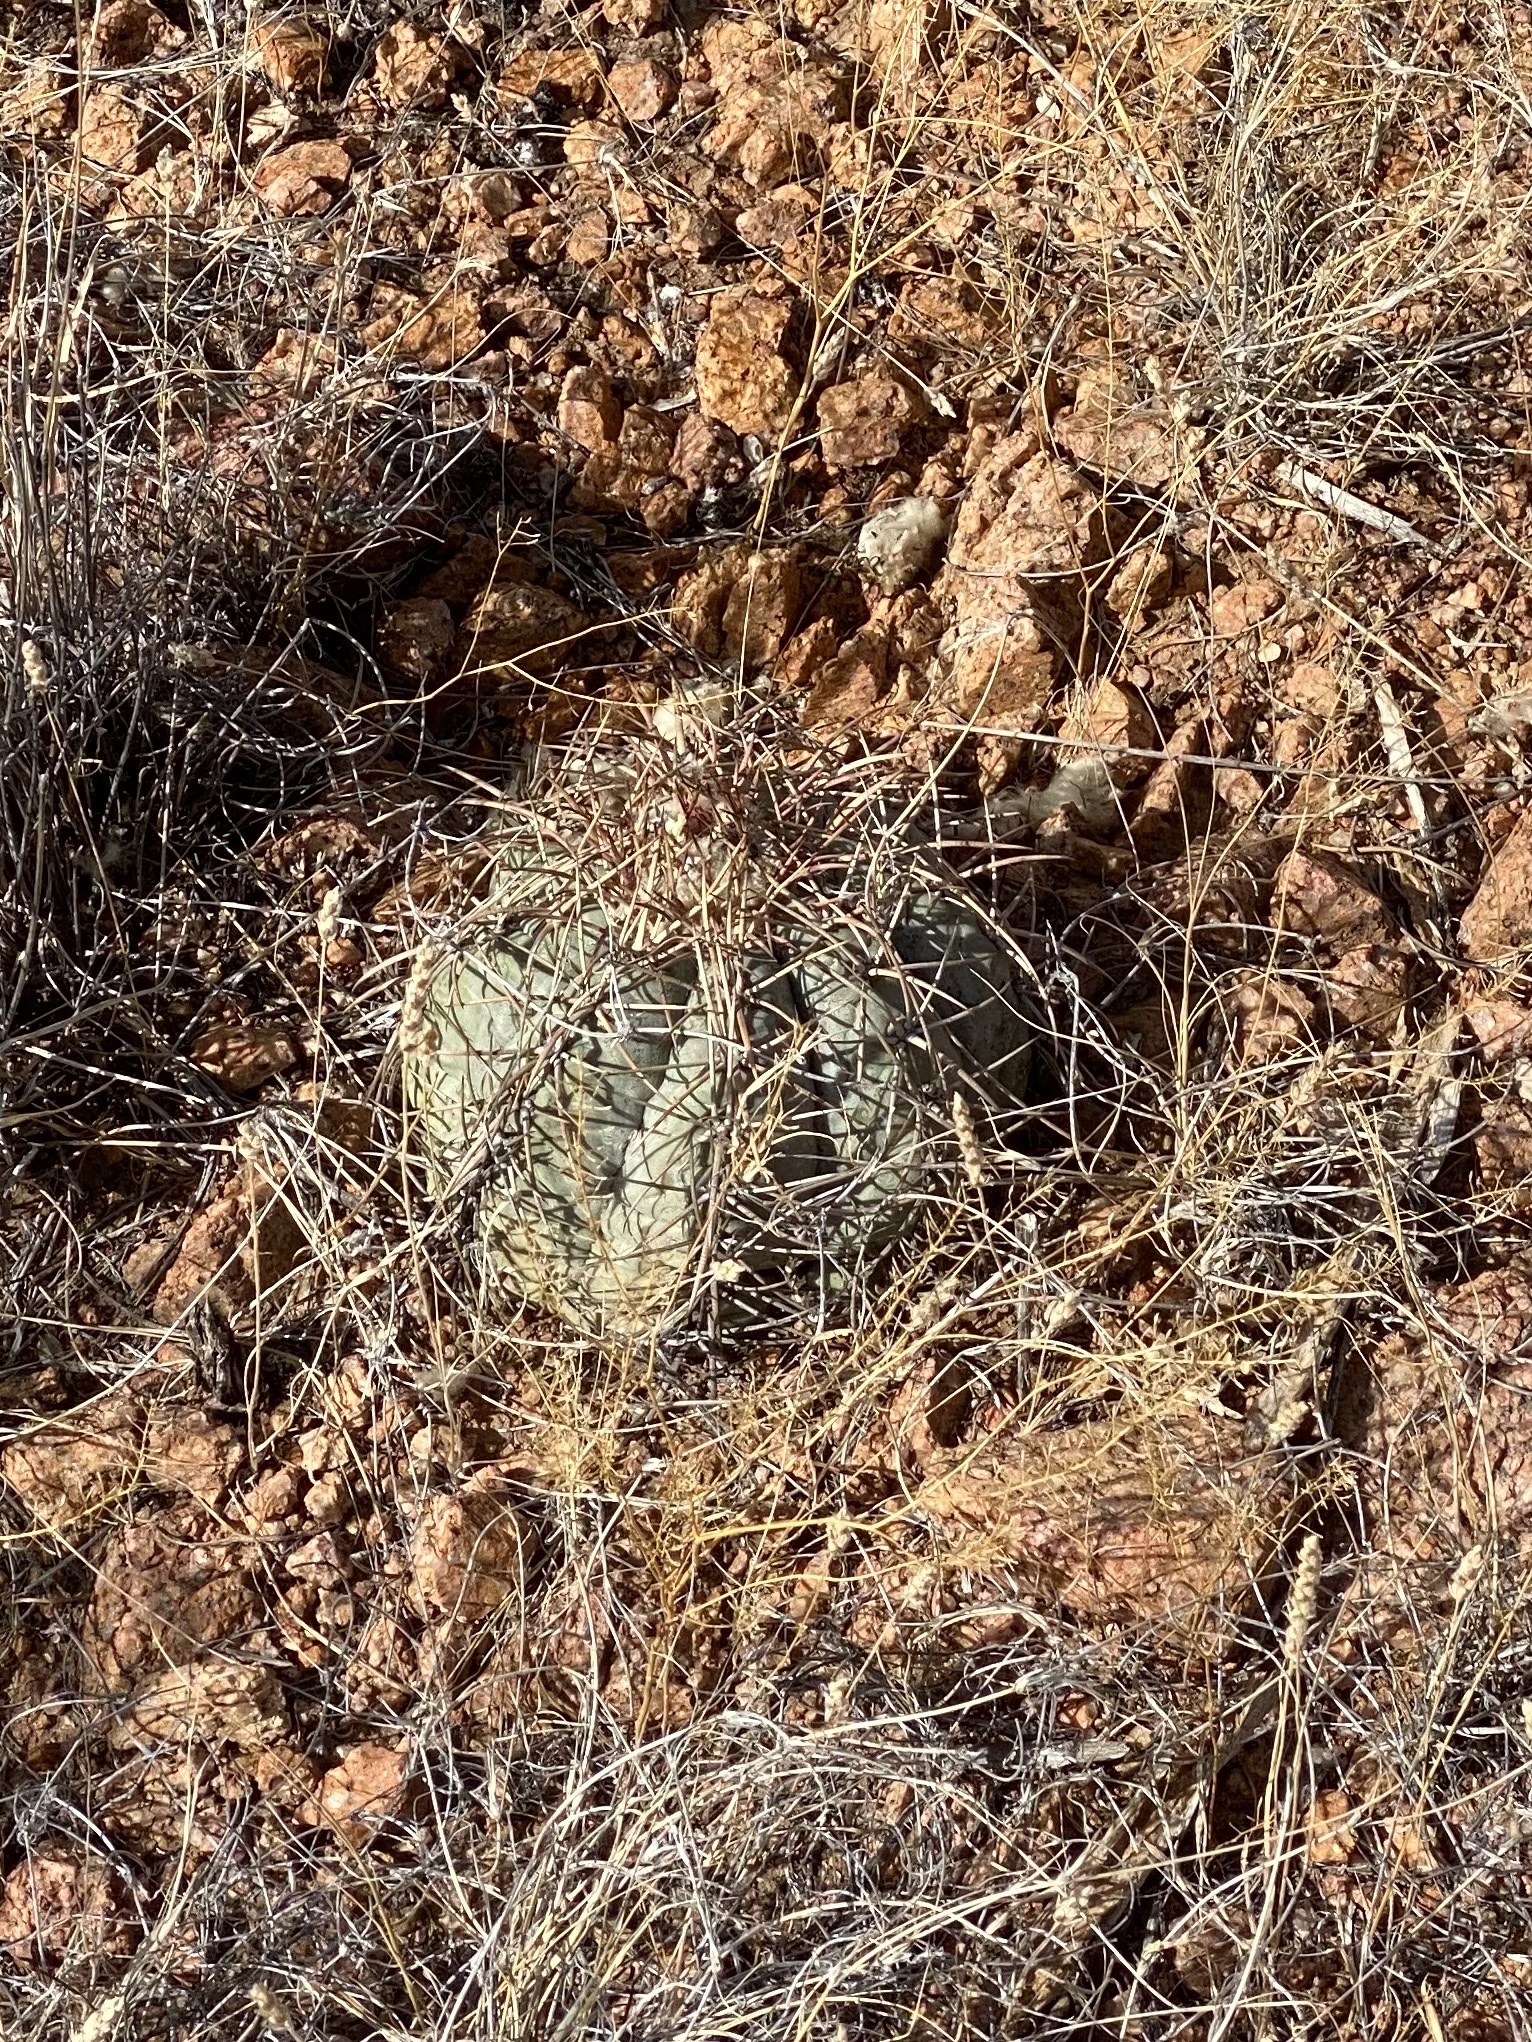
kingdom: Plantae
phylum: Tracheophyta
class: Magnoliopsida
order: Caryophyllales
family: Cactaceae
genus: Echinocactus
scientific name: Echinocactus horizonthalonius
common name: Devilshead
